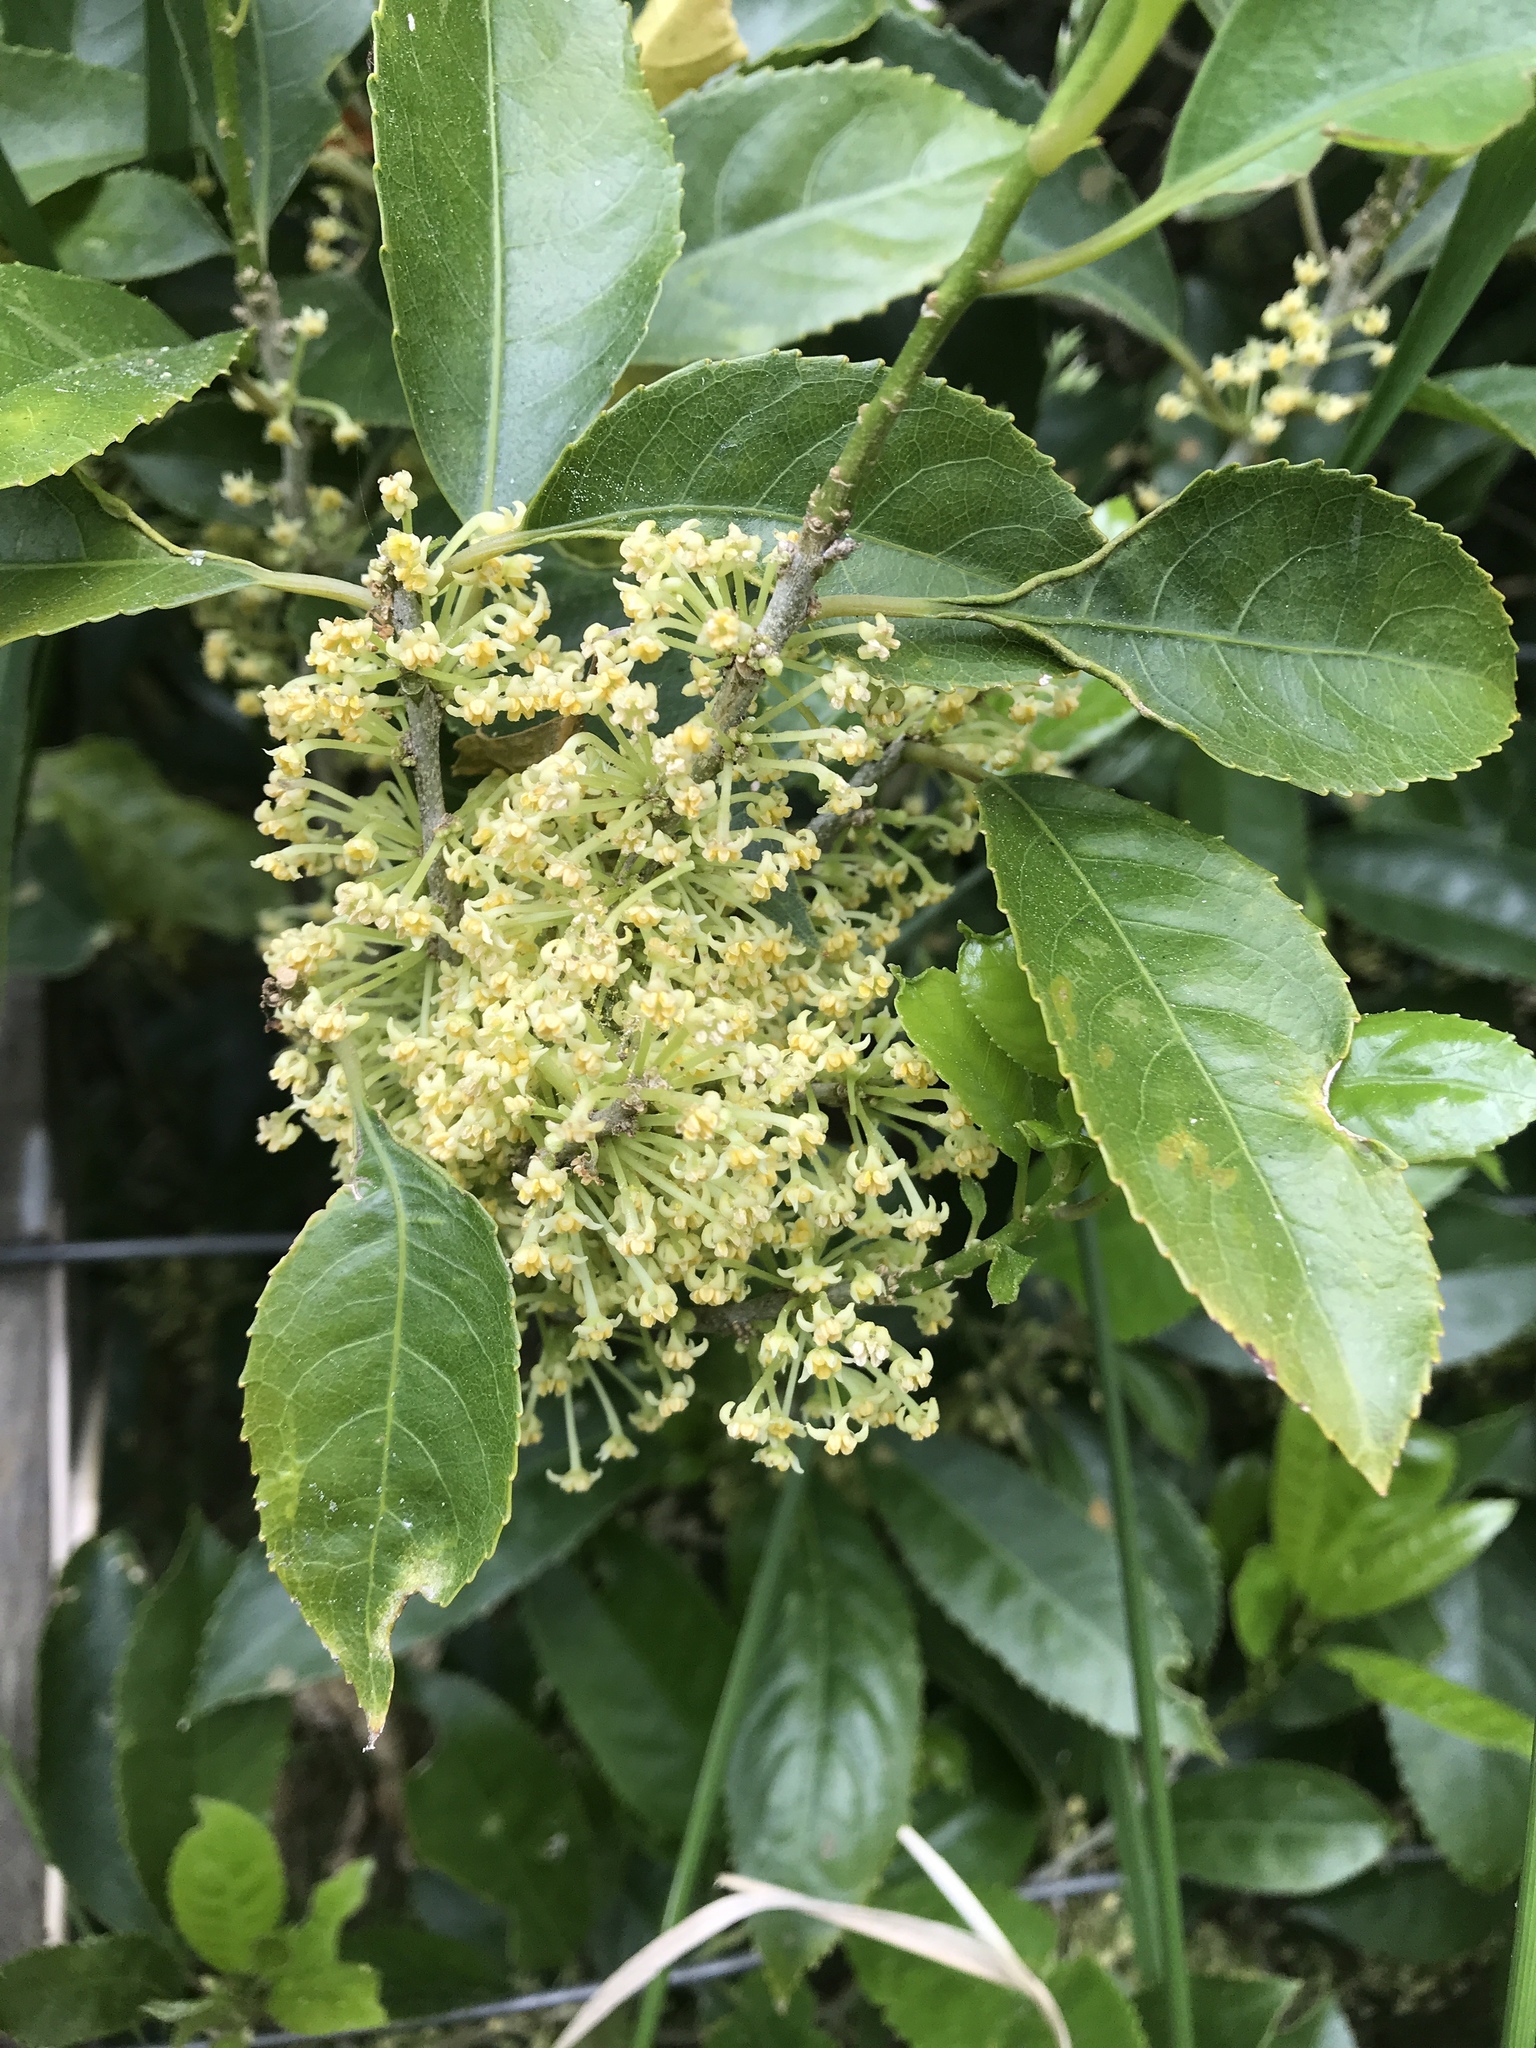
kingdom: Plantae
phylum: Tracheophyta
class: Magnoliopsida
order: Malpighiales
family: Violaceae
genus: Melicytus
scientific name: Melicytus ramiflorus
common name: Mahoe
